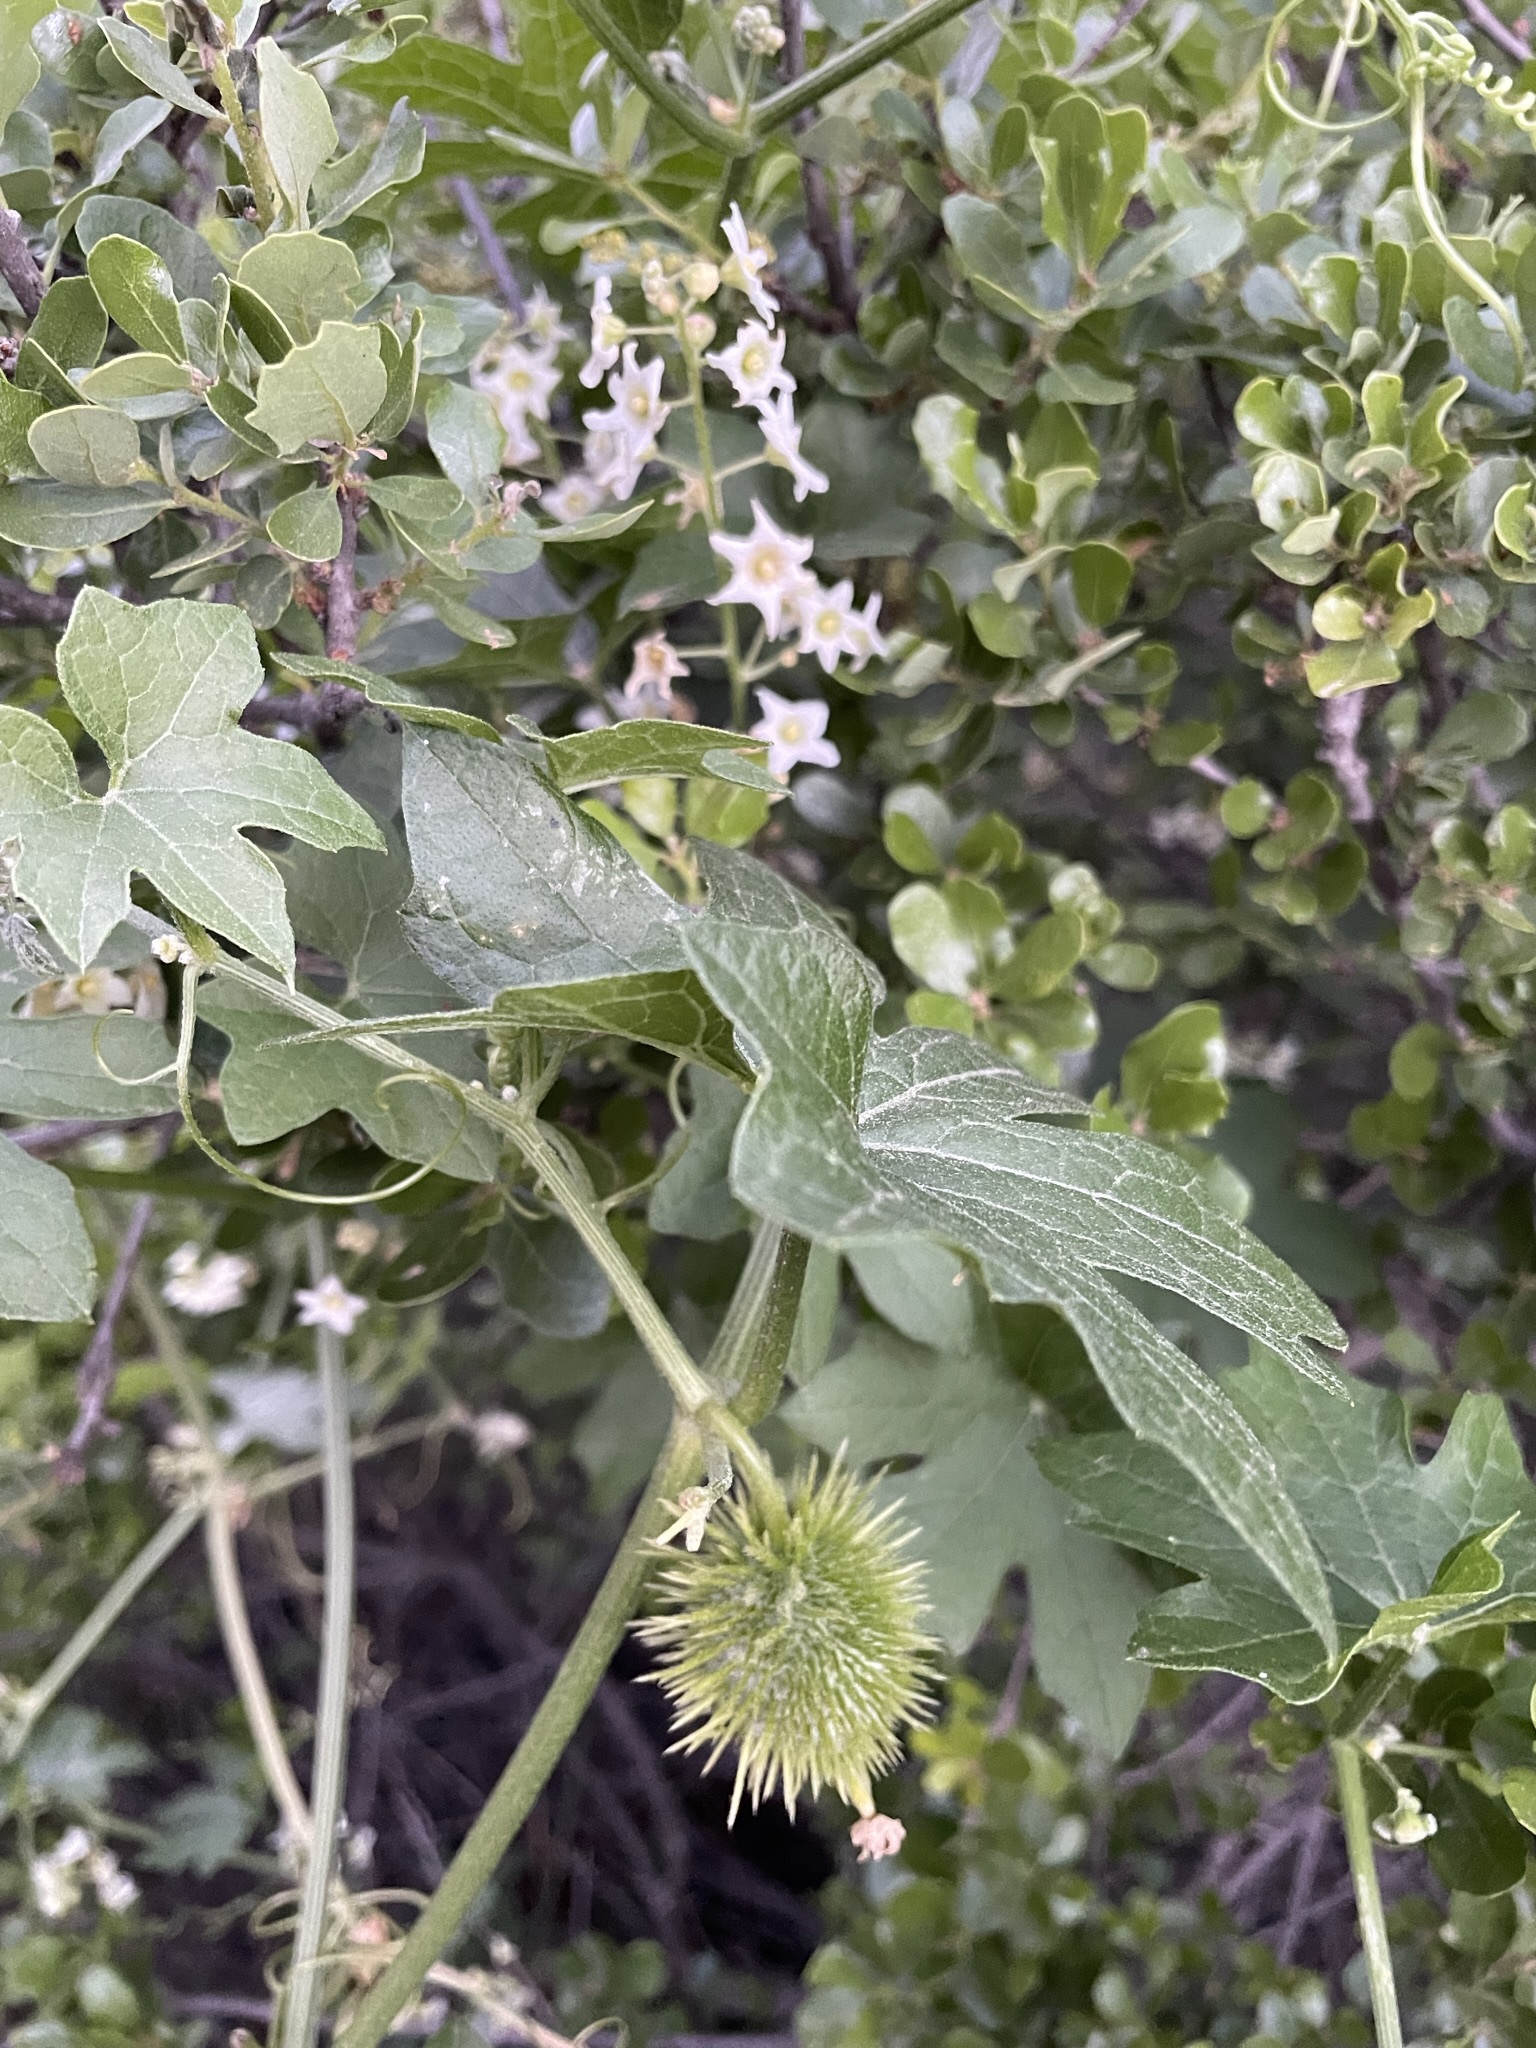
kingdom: Plantae
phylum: Tracheophyta
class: Magnoliopsida
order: Cucurbitales
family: Cucurbitaceae
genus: Marah
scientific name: Marah macrocarpa
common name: Cucamonga manroot
